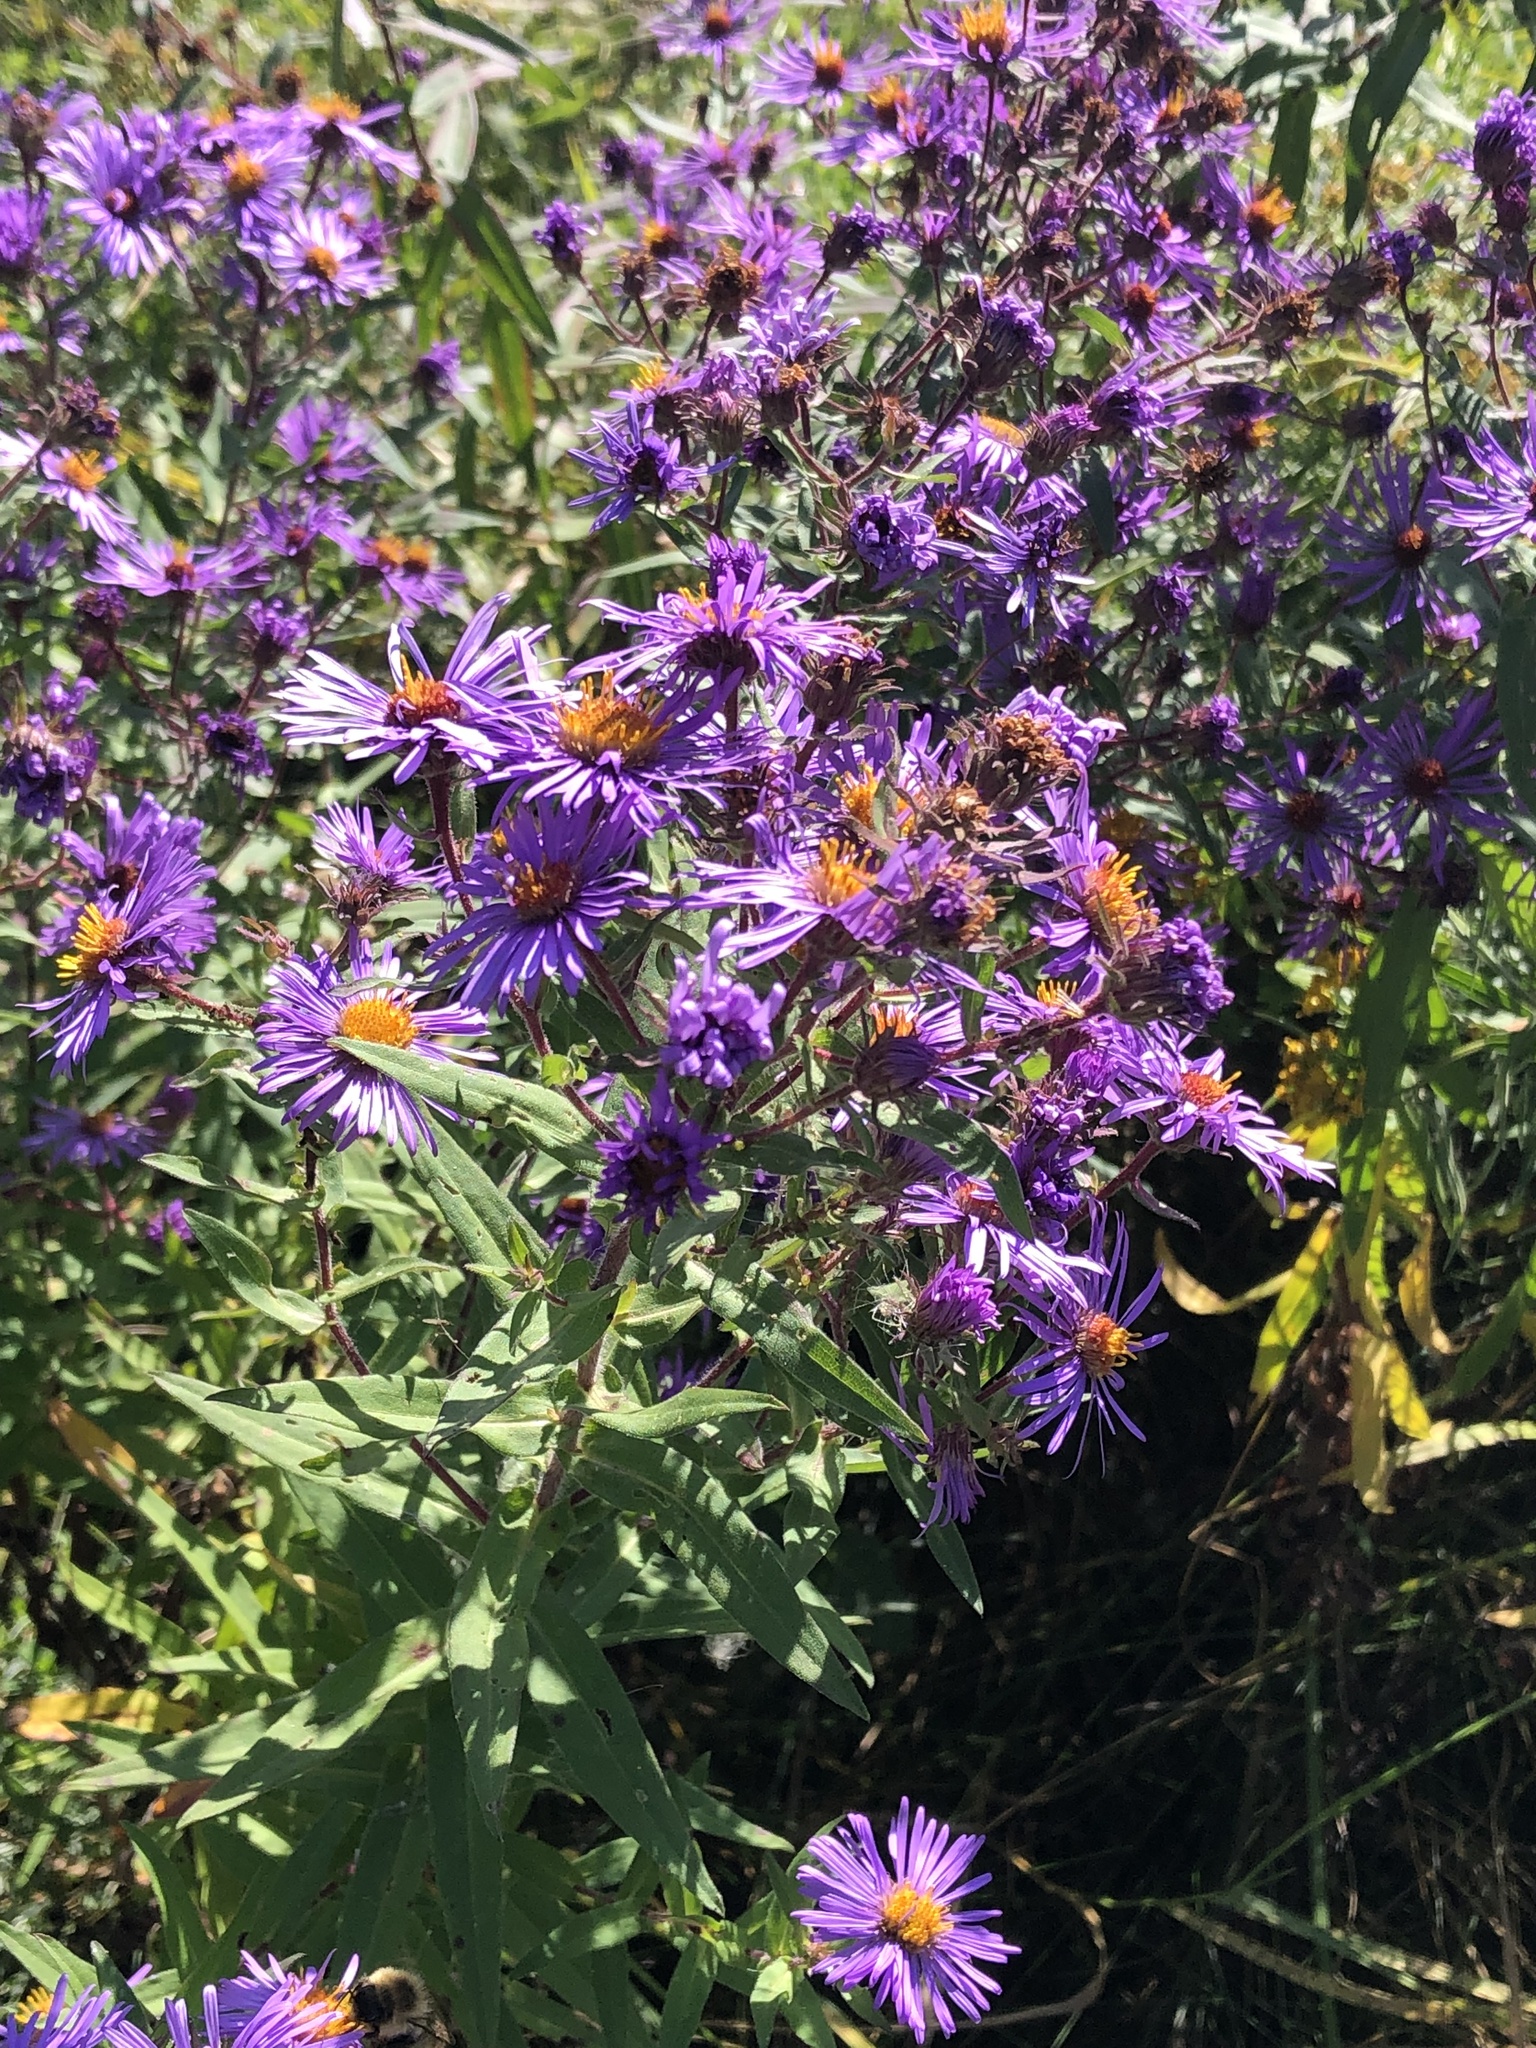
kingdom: Plantae
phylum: Tracheophyta
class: Magnoliopsida
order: Asterales
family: Asteraceae
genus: Symphyotrichum
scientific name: Symphyotrichum novae-angliae
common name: Michaelmas daisy
